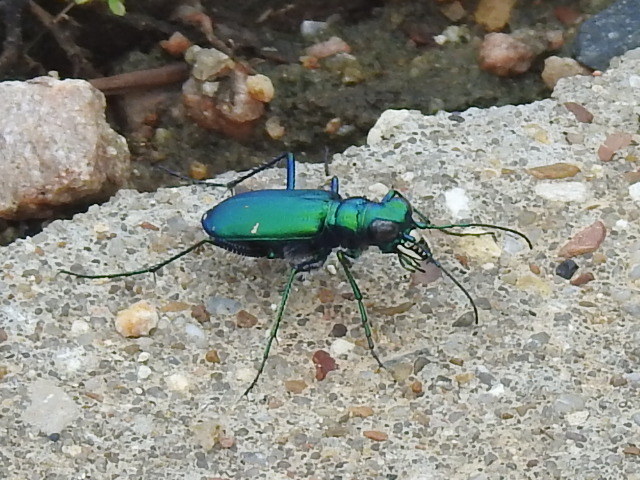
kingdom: Animalia
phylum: Arthropoda
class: Insecta
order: Coleoptera
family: Carabidae
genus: Cicindela
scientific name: Cicindela sexguttata
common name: Six-spotted tiger beetle
